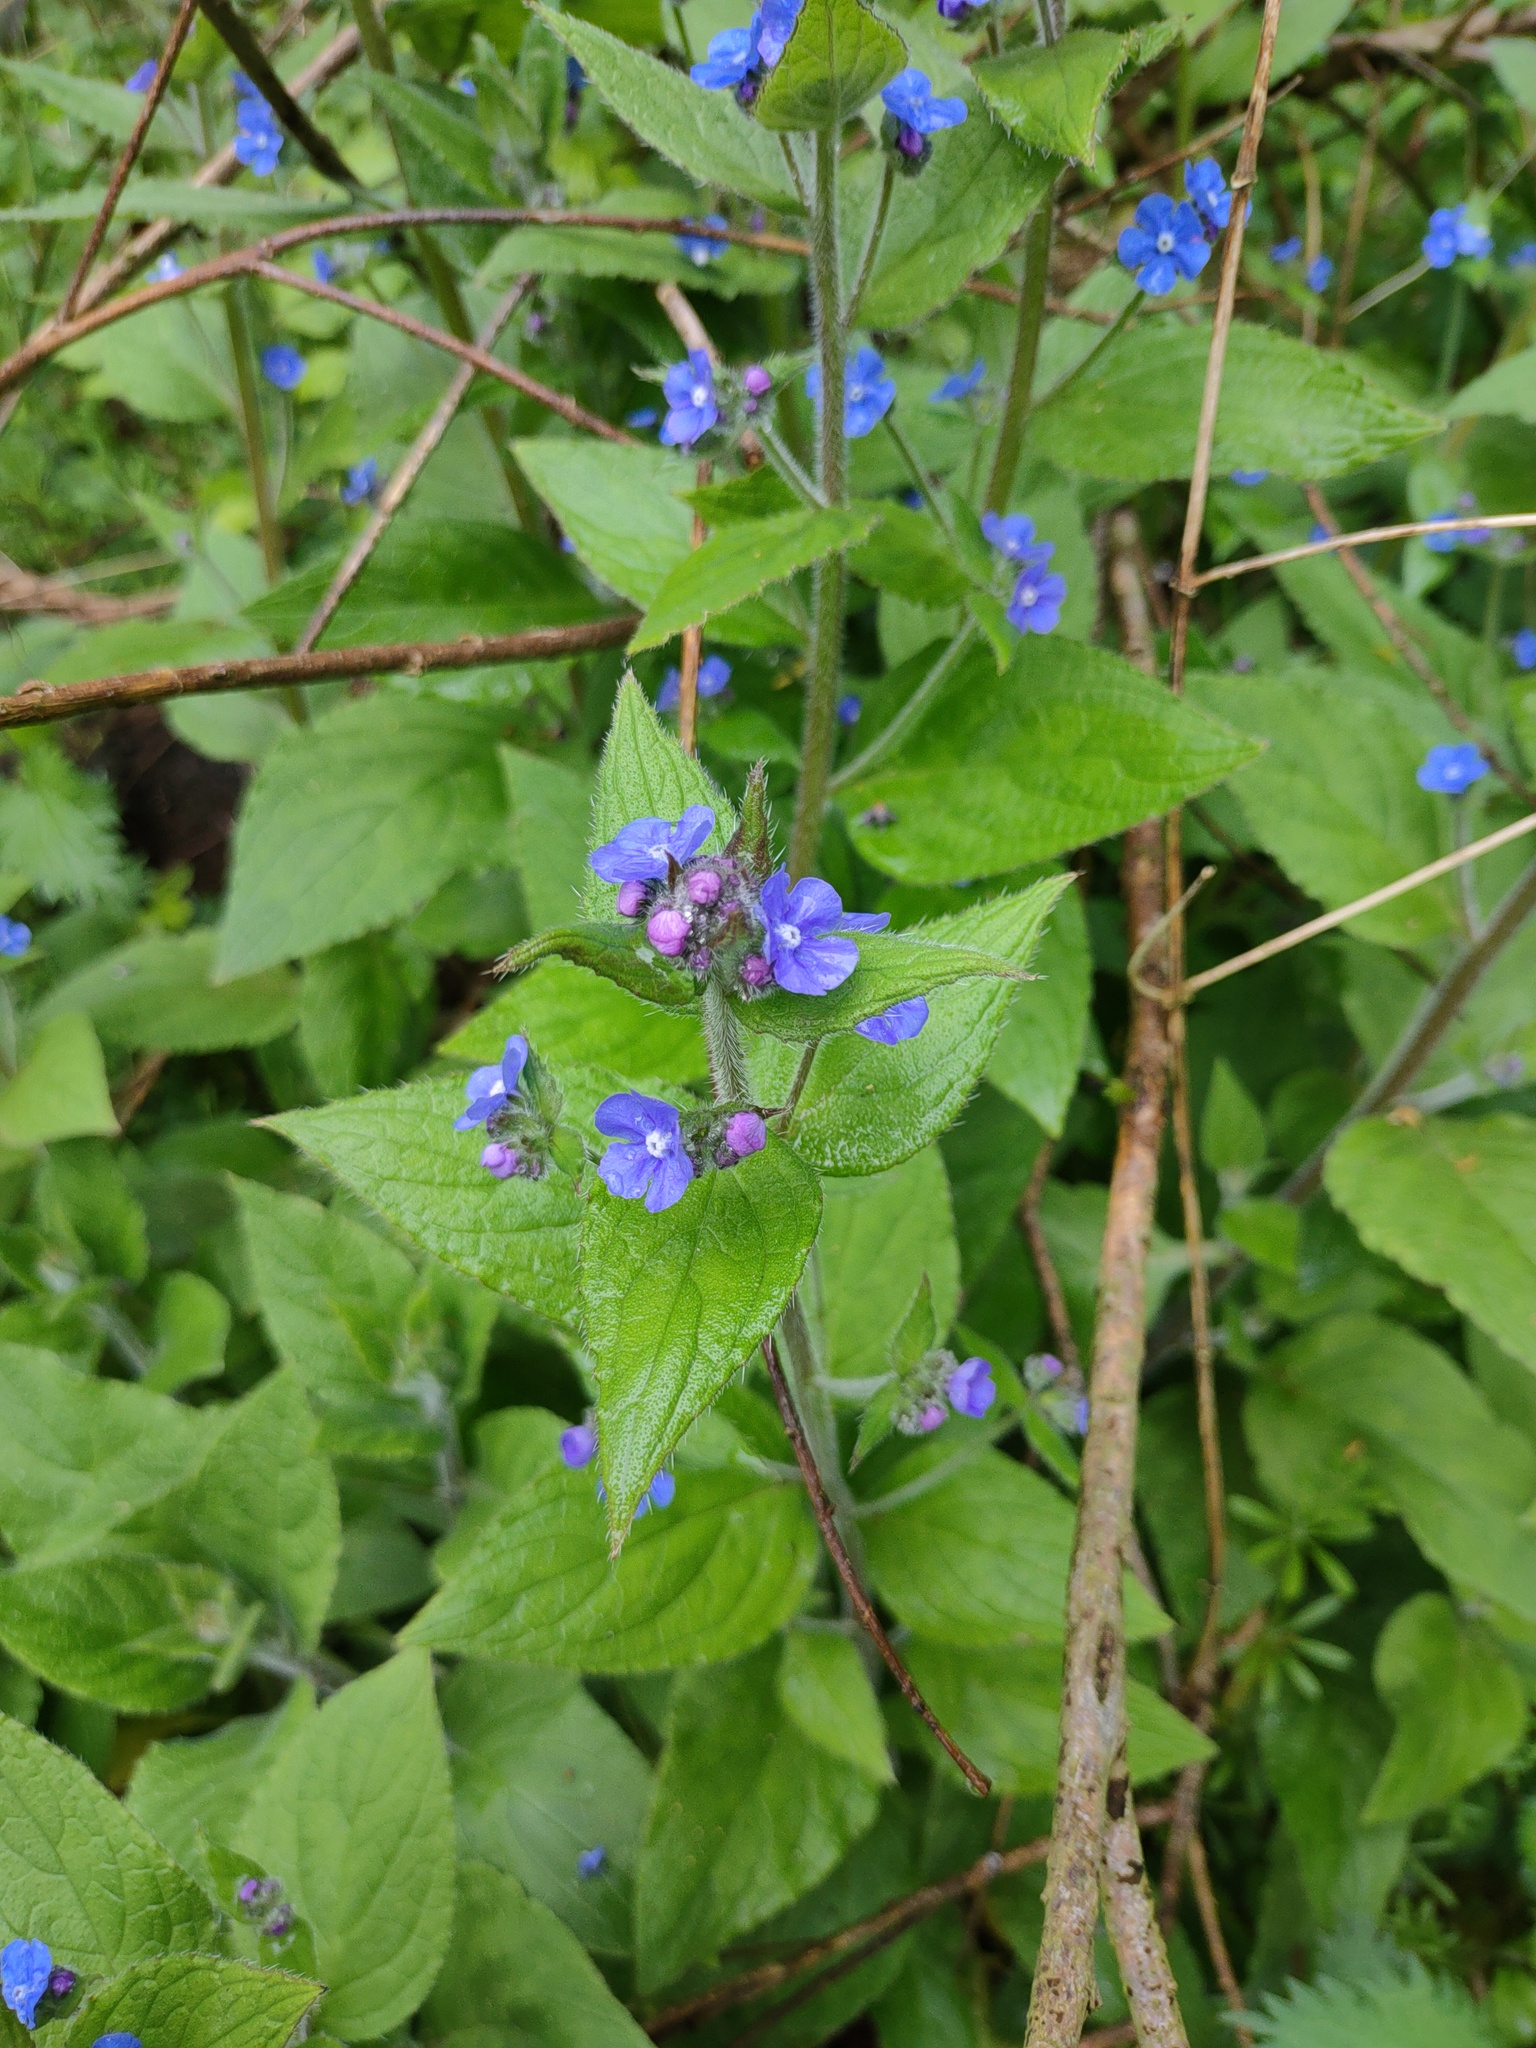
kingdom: Plantae
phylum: Tracheophyta
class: Magnoliopsida
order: Boraginales
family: Boraginaceae
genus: Pentaglottis
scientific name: Pentaglottis sempervirens
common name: Green alkanet
